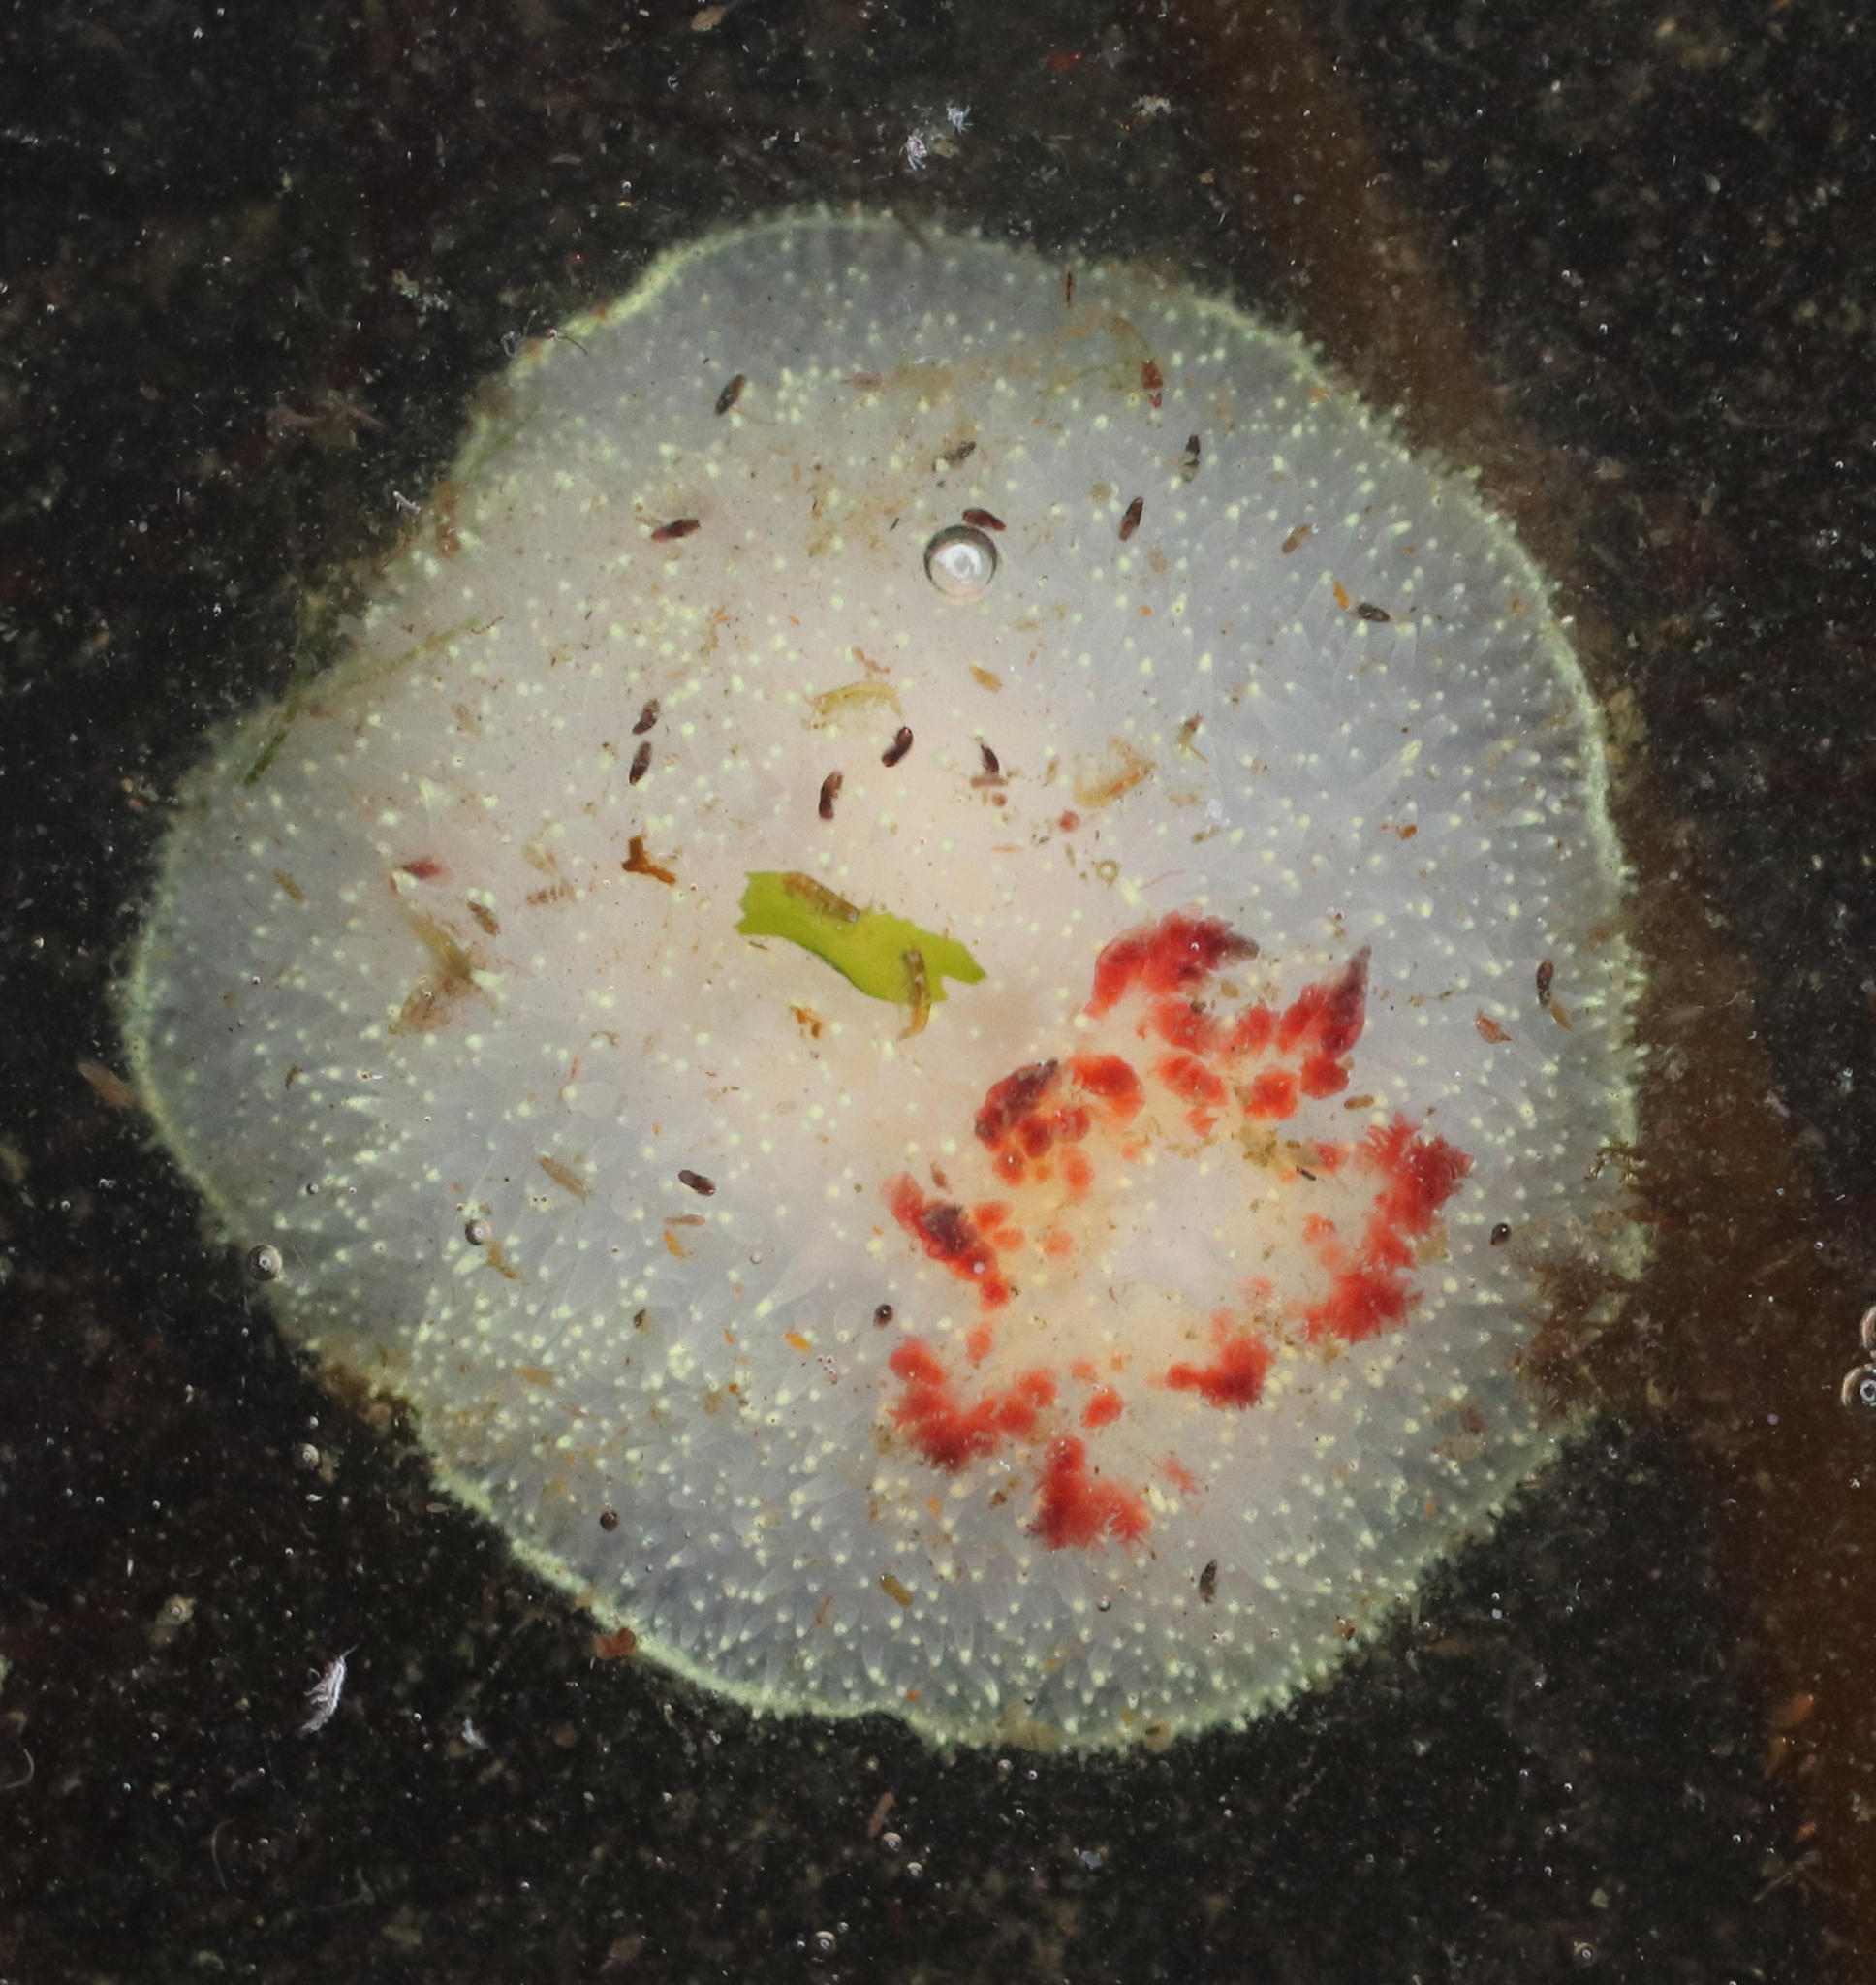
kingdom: Animalia
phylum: Mollusca
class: Gastropoda
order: Nudibranchia
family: Onchidorididae
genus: Acanthodoris
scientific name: Acanthodoris nanaimoensis
